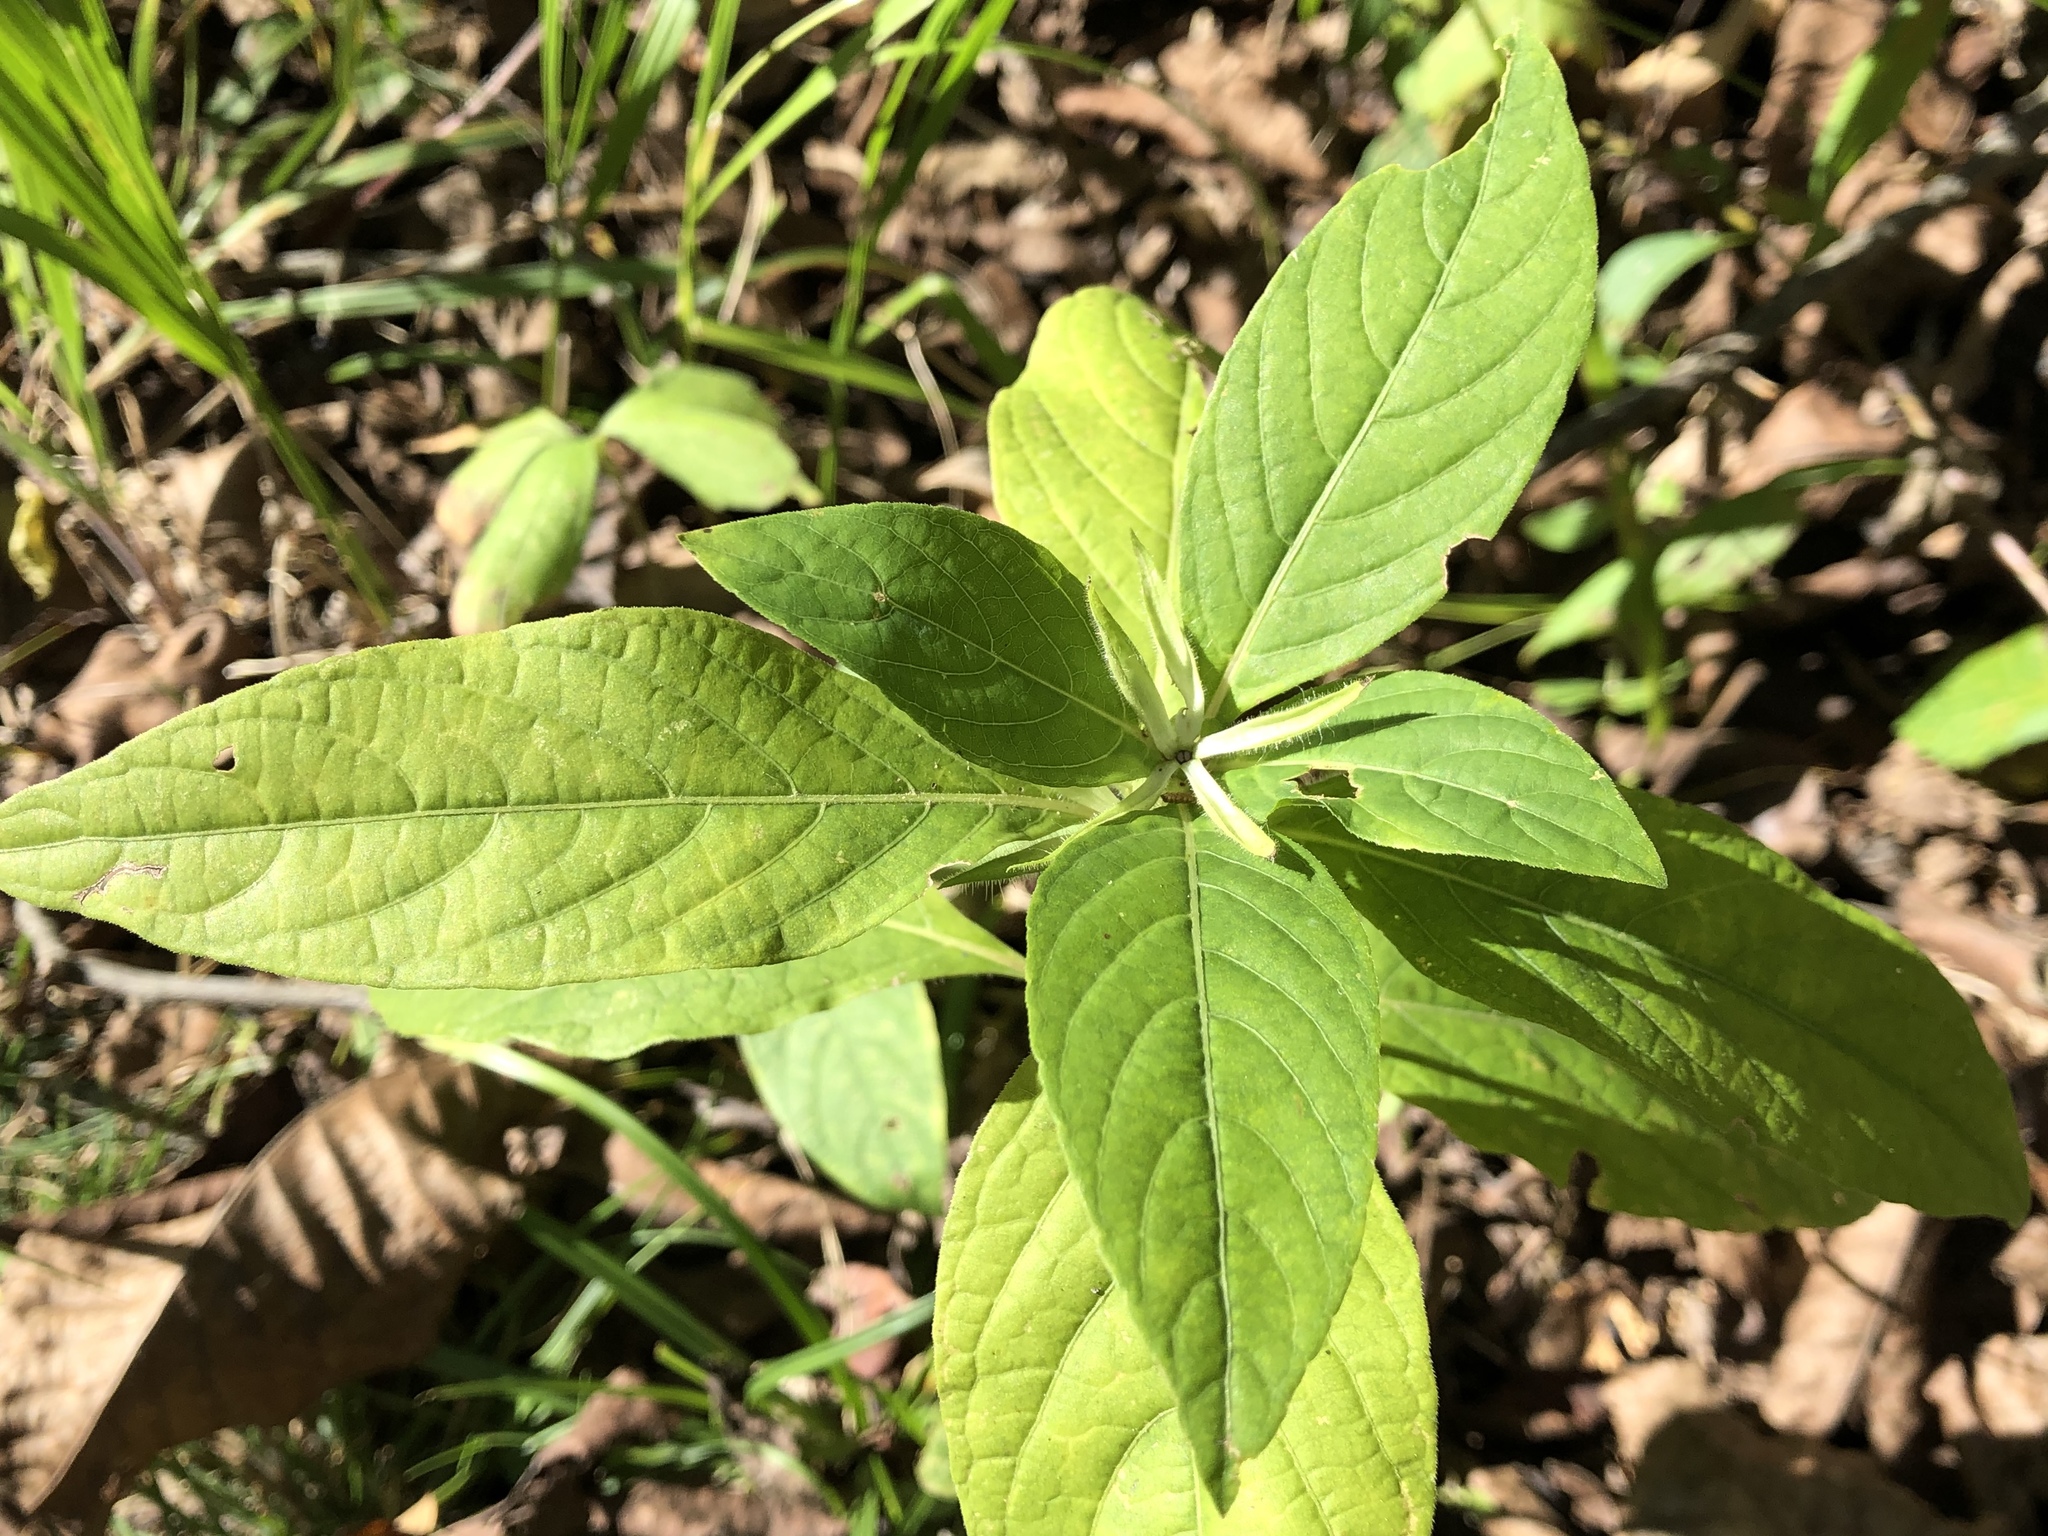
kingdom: Plantae
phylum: Tracheophyta
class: Magnoliopsida
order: Lamiales
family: Acanthaceae
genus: Ruellia
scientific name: Ruellia strepens
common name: Limestone wild petunia
